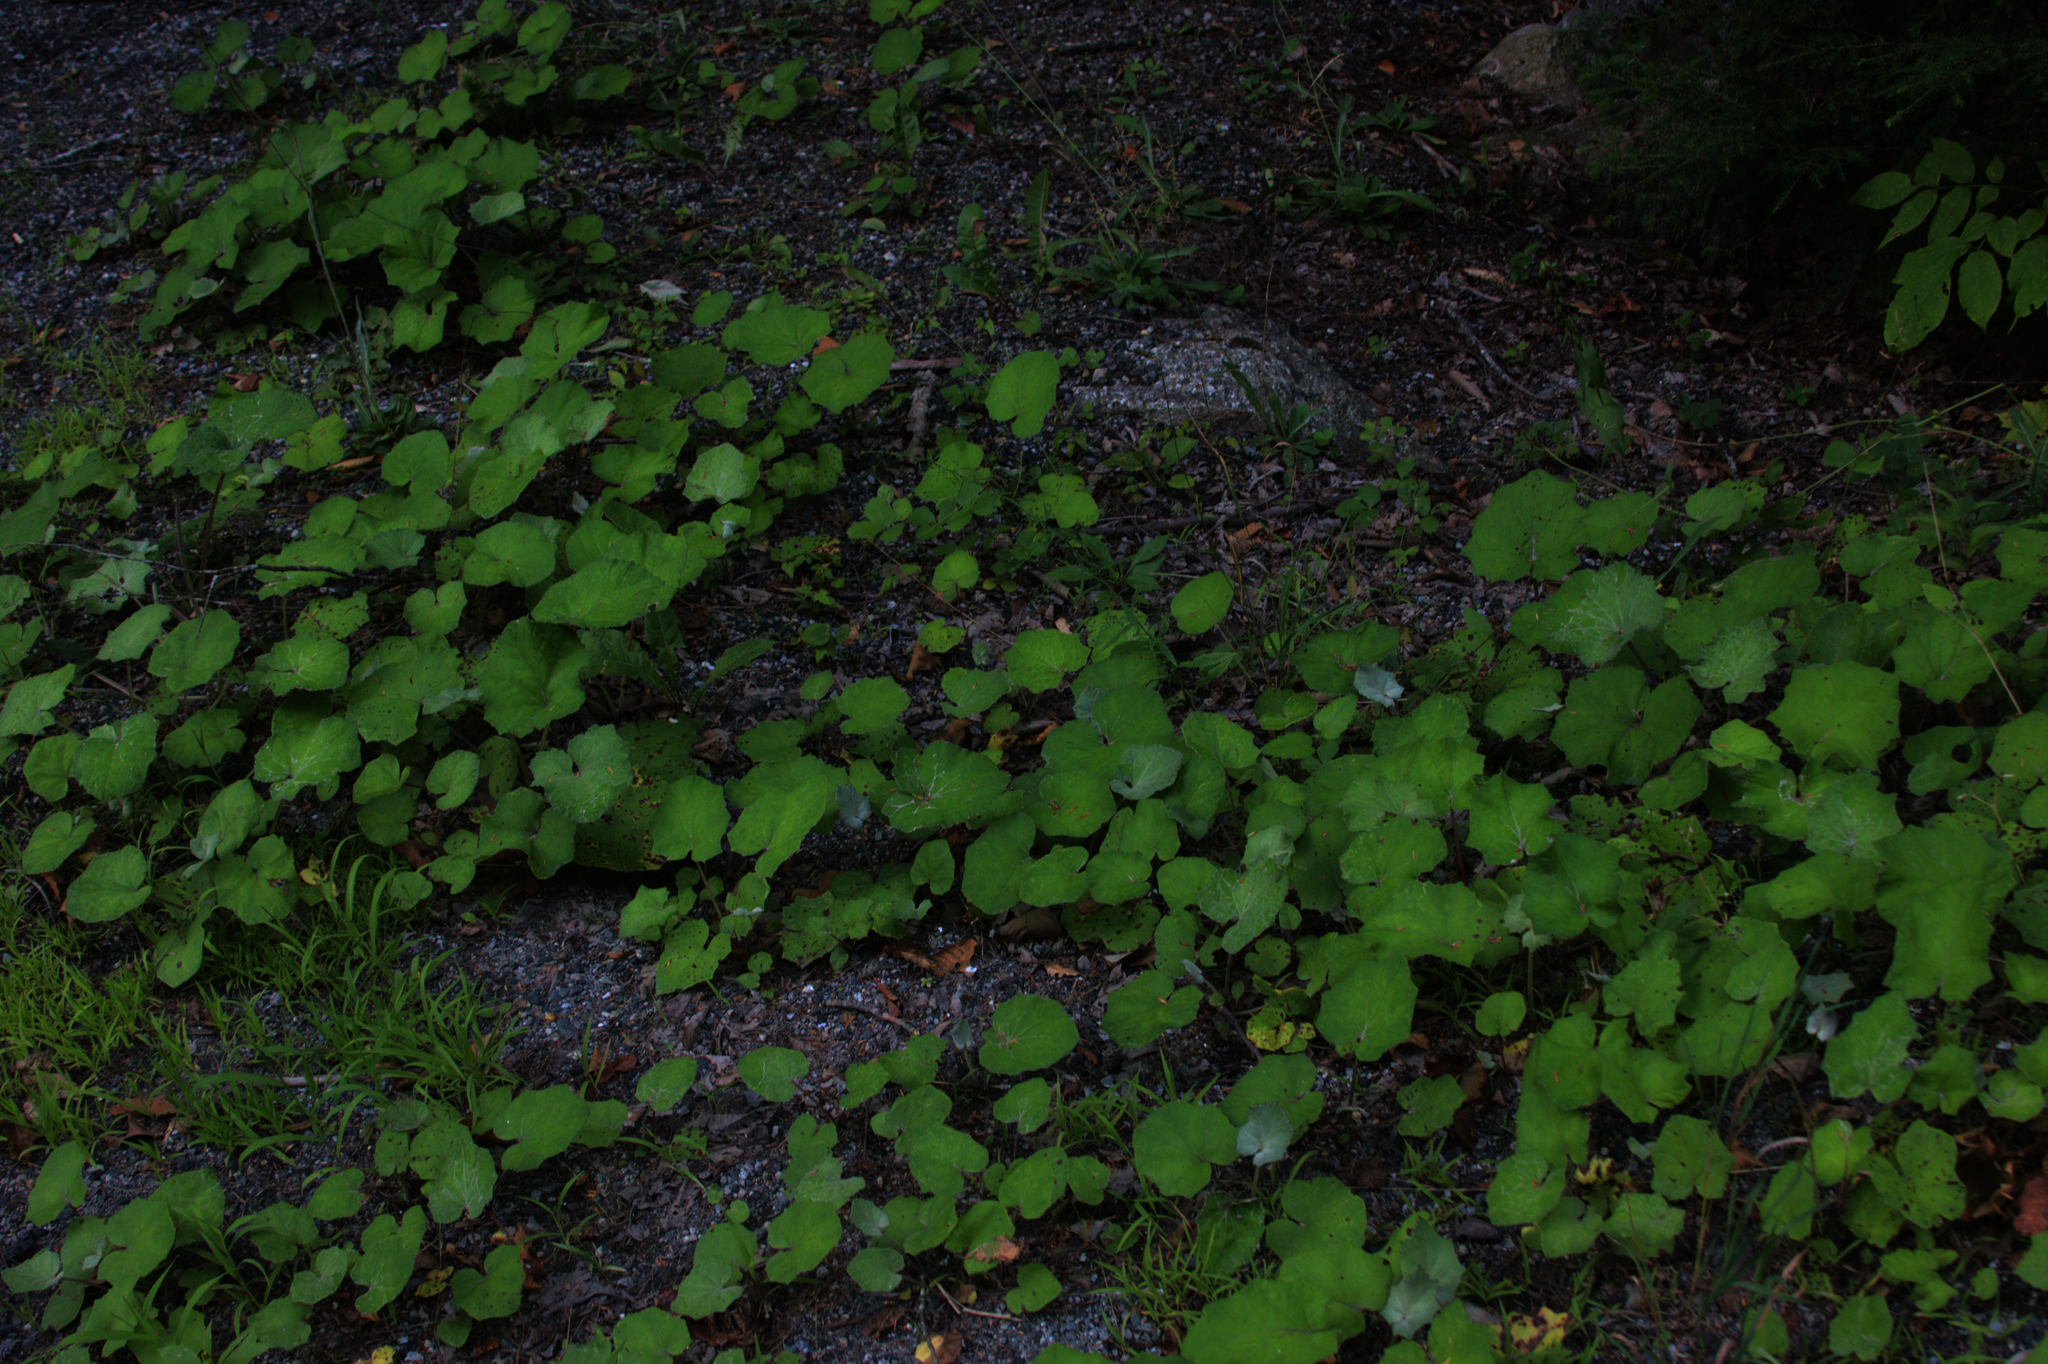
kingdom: Plantae
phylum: Tracheophyta
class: Magnoliopsida
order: Asterales
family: Asteraceae
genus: Tussilago
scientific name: Tussilago farfara
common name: Coltsfoot
